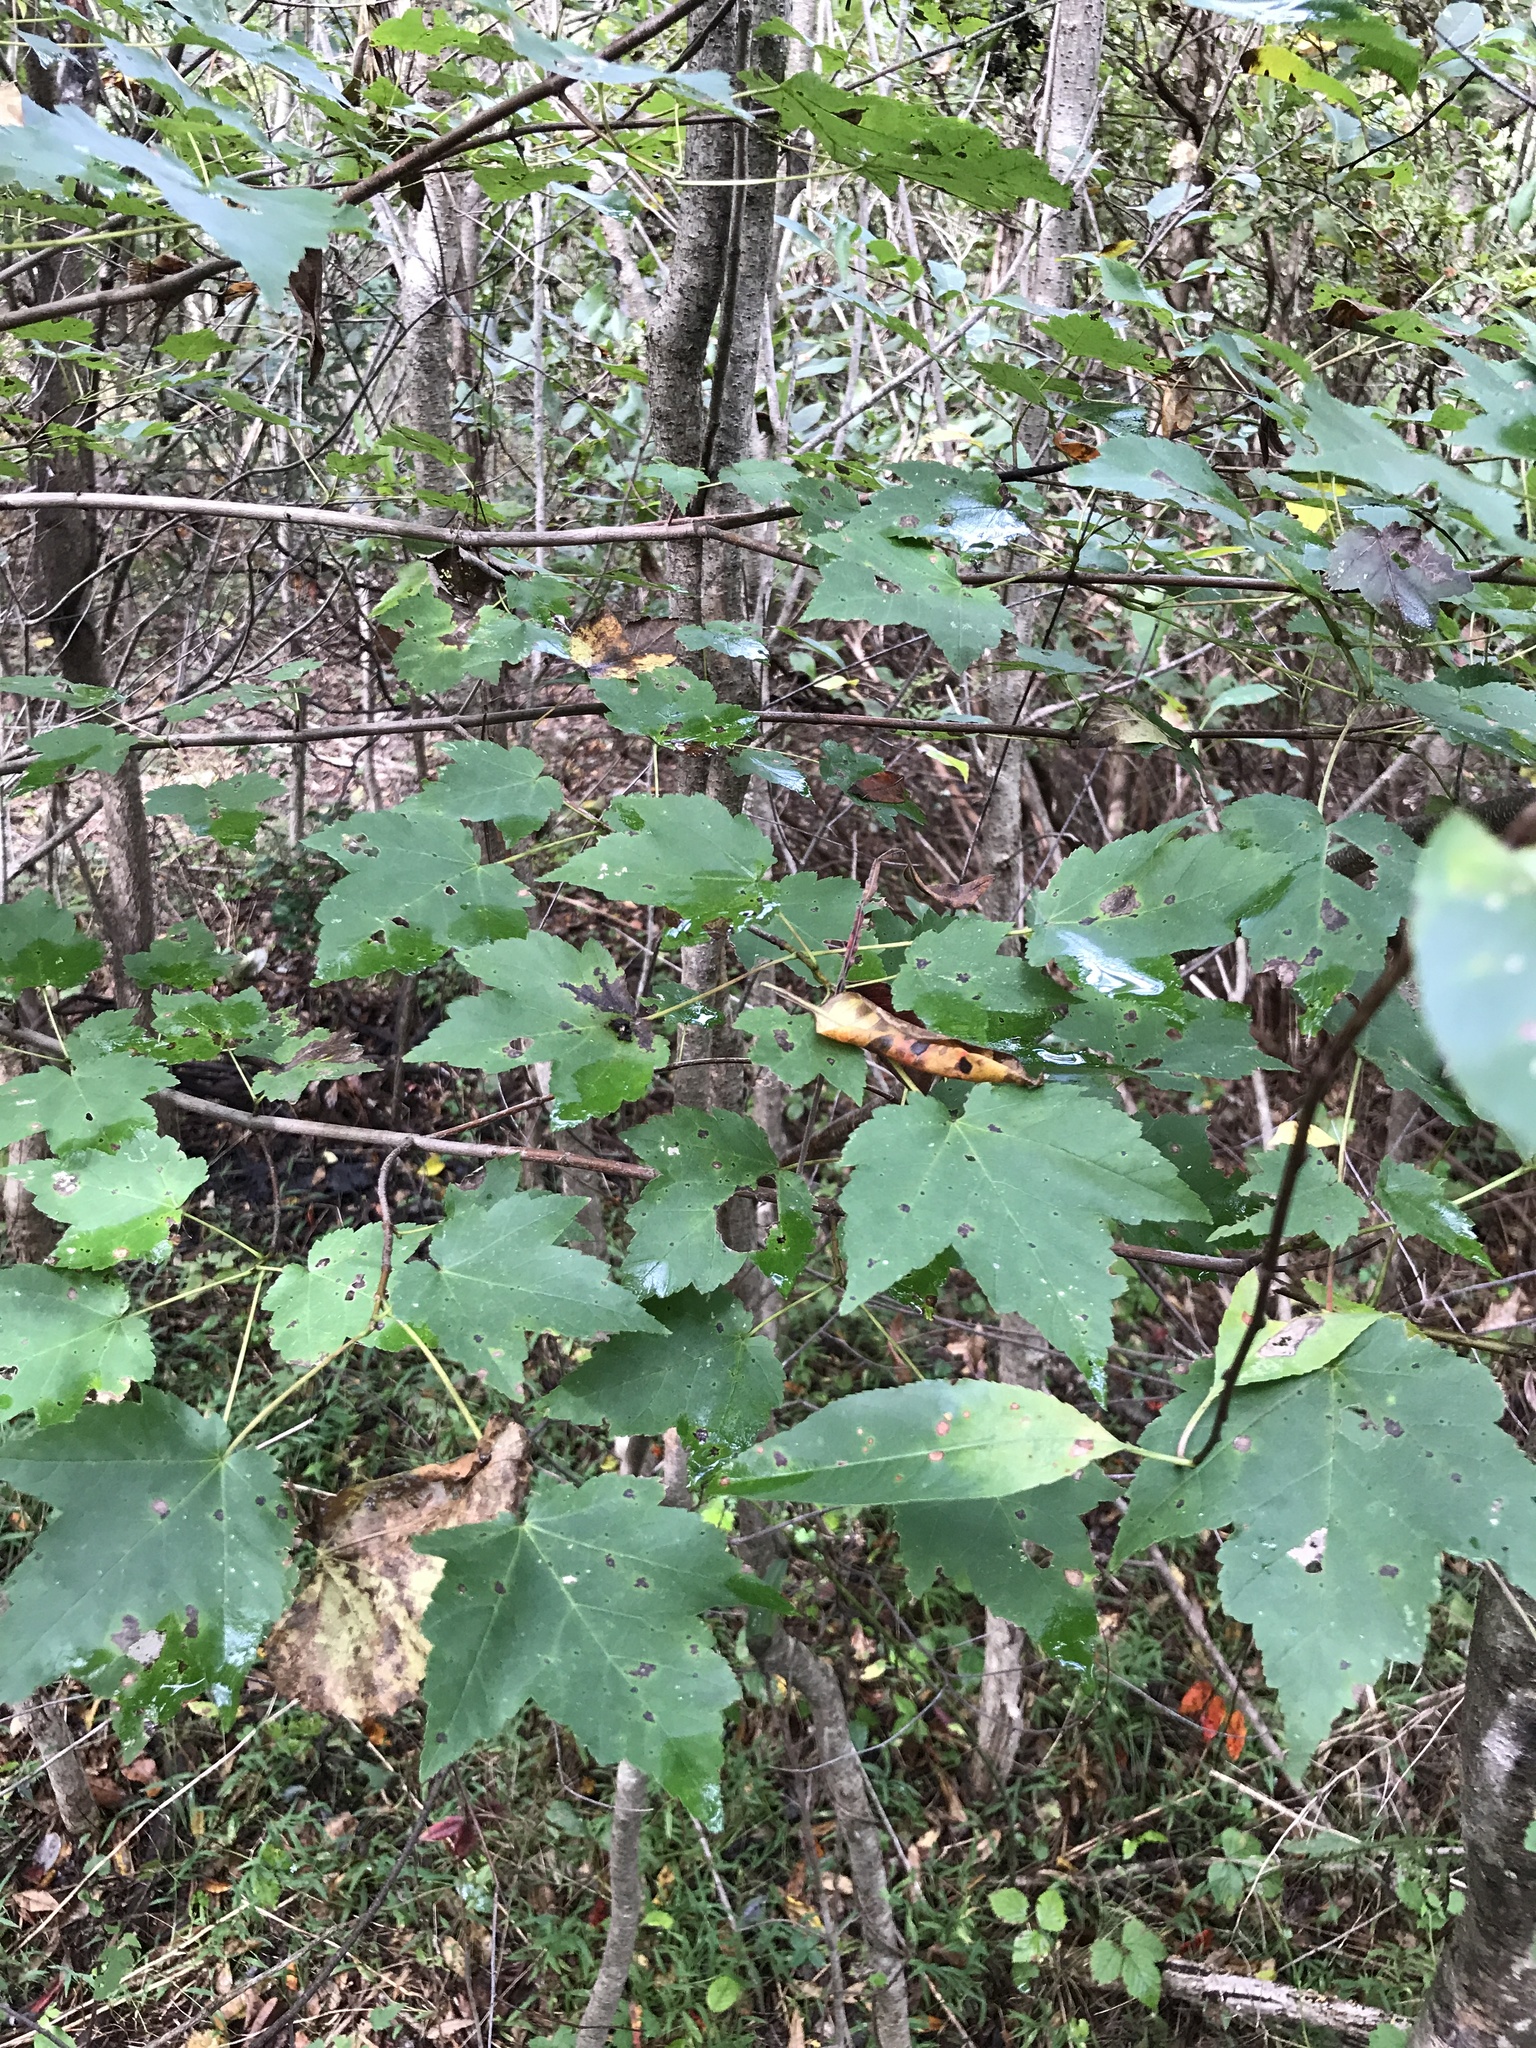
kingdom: Plantae
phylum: Tracheophyta
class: Magnoliopsida
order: Sapindales
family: Sapindaceae
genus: Acer
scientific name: Acer rubrum
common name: Red maple
